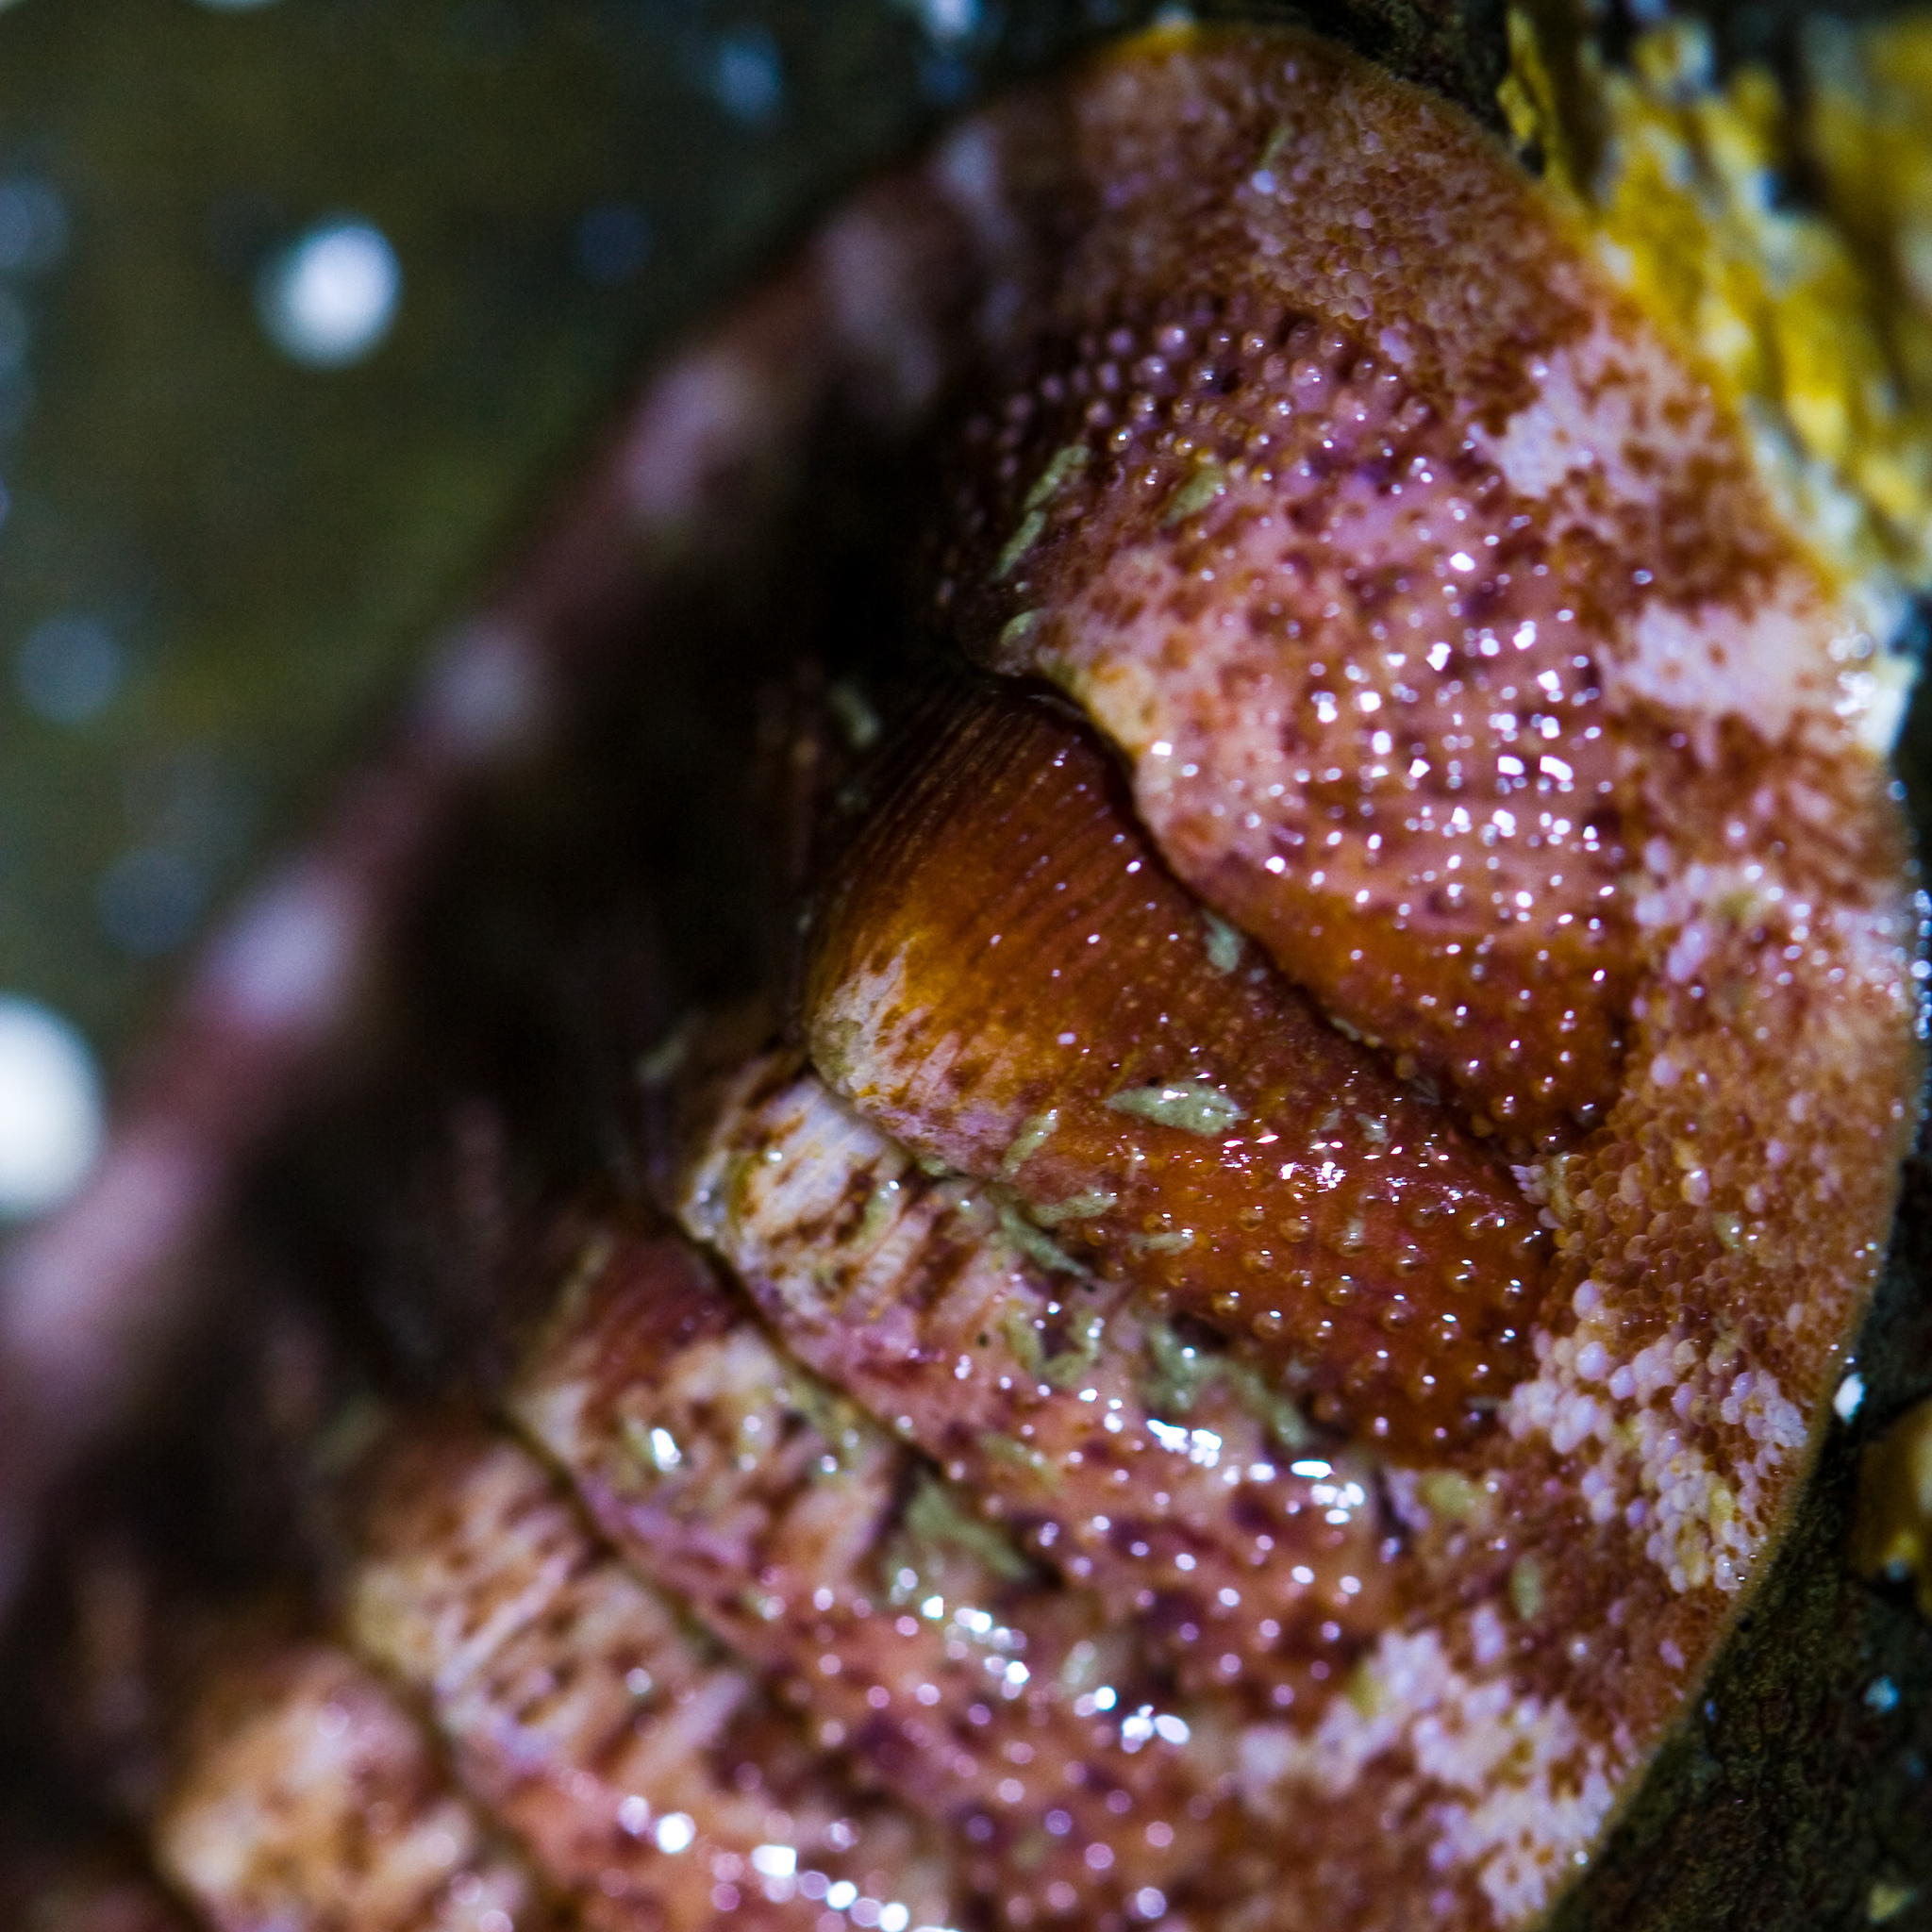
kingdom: Animalia
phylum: Mollusca
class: Polyplacophora
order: Chitonida
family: Ischnochitonidae
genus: Lepidozona
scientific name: Lepidozona mertensii
